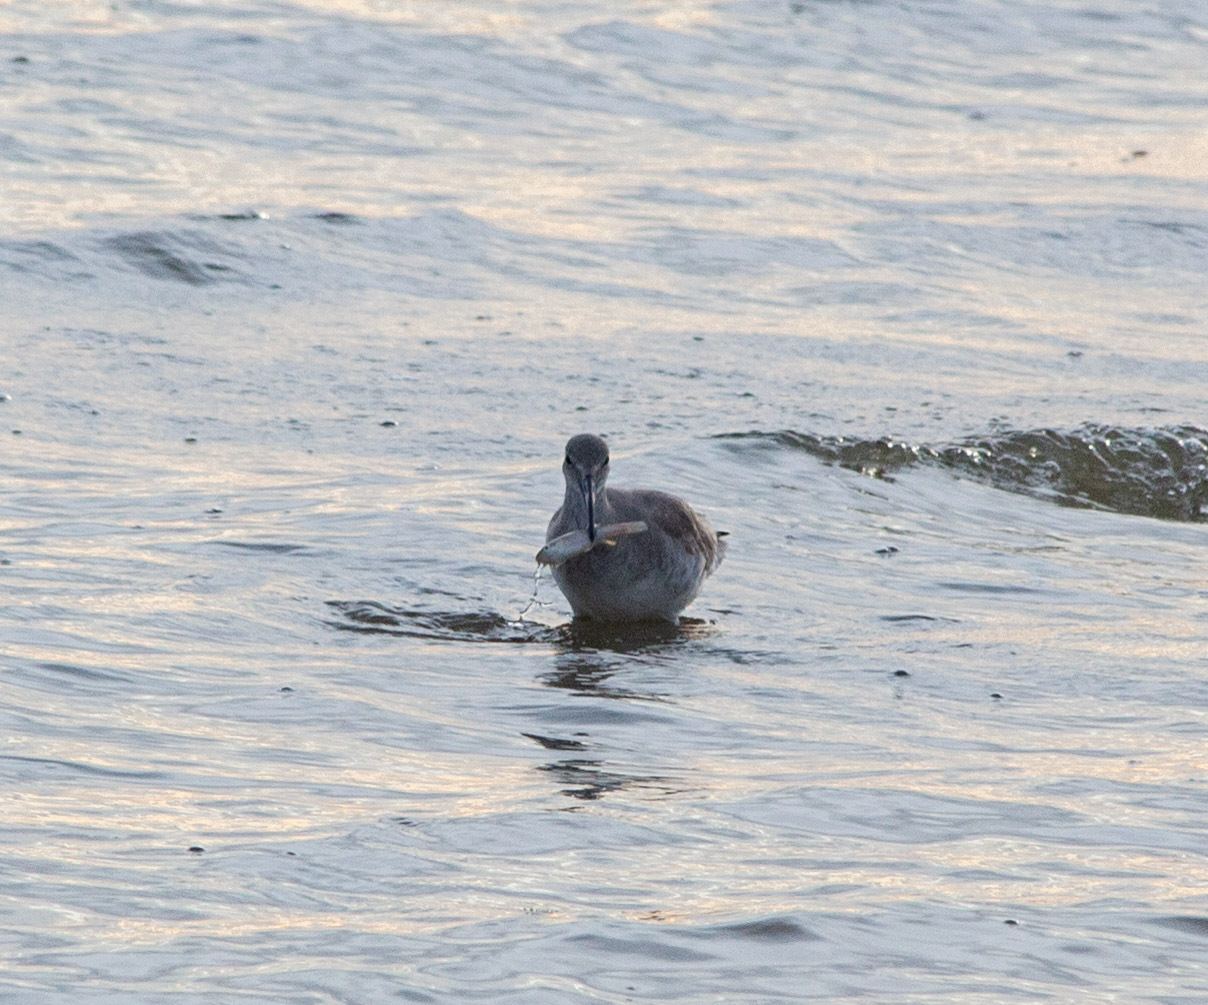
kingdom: Animalia
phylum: Chordata
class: Aves
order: Charadriiformes
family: Scolopacidae
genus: Tringa
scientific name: Tringa semipalmata
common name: Willet
